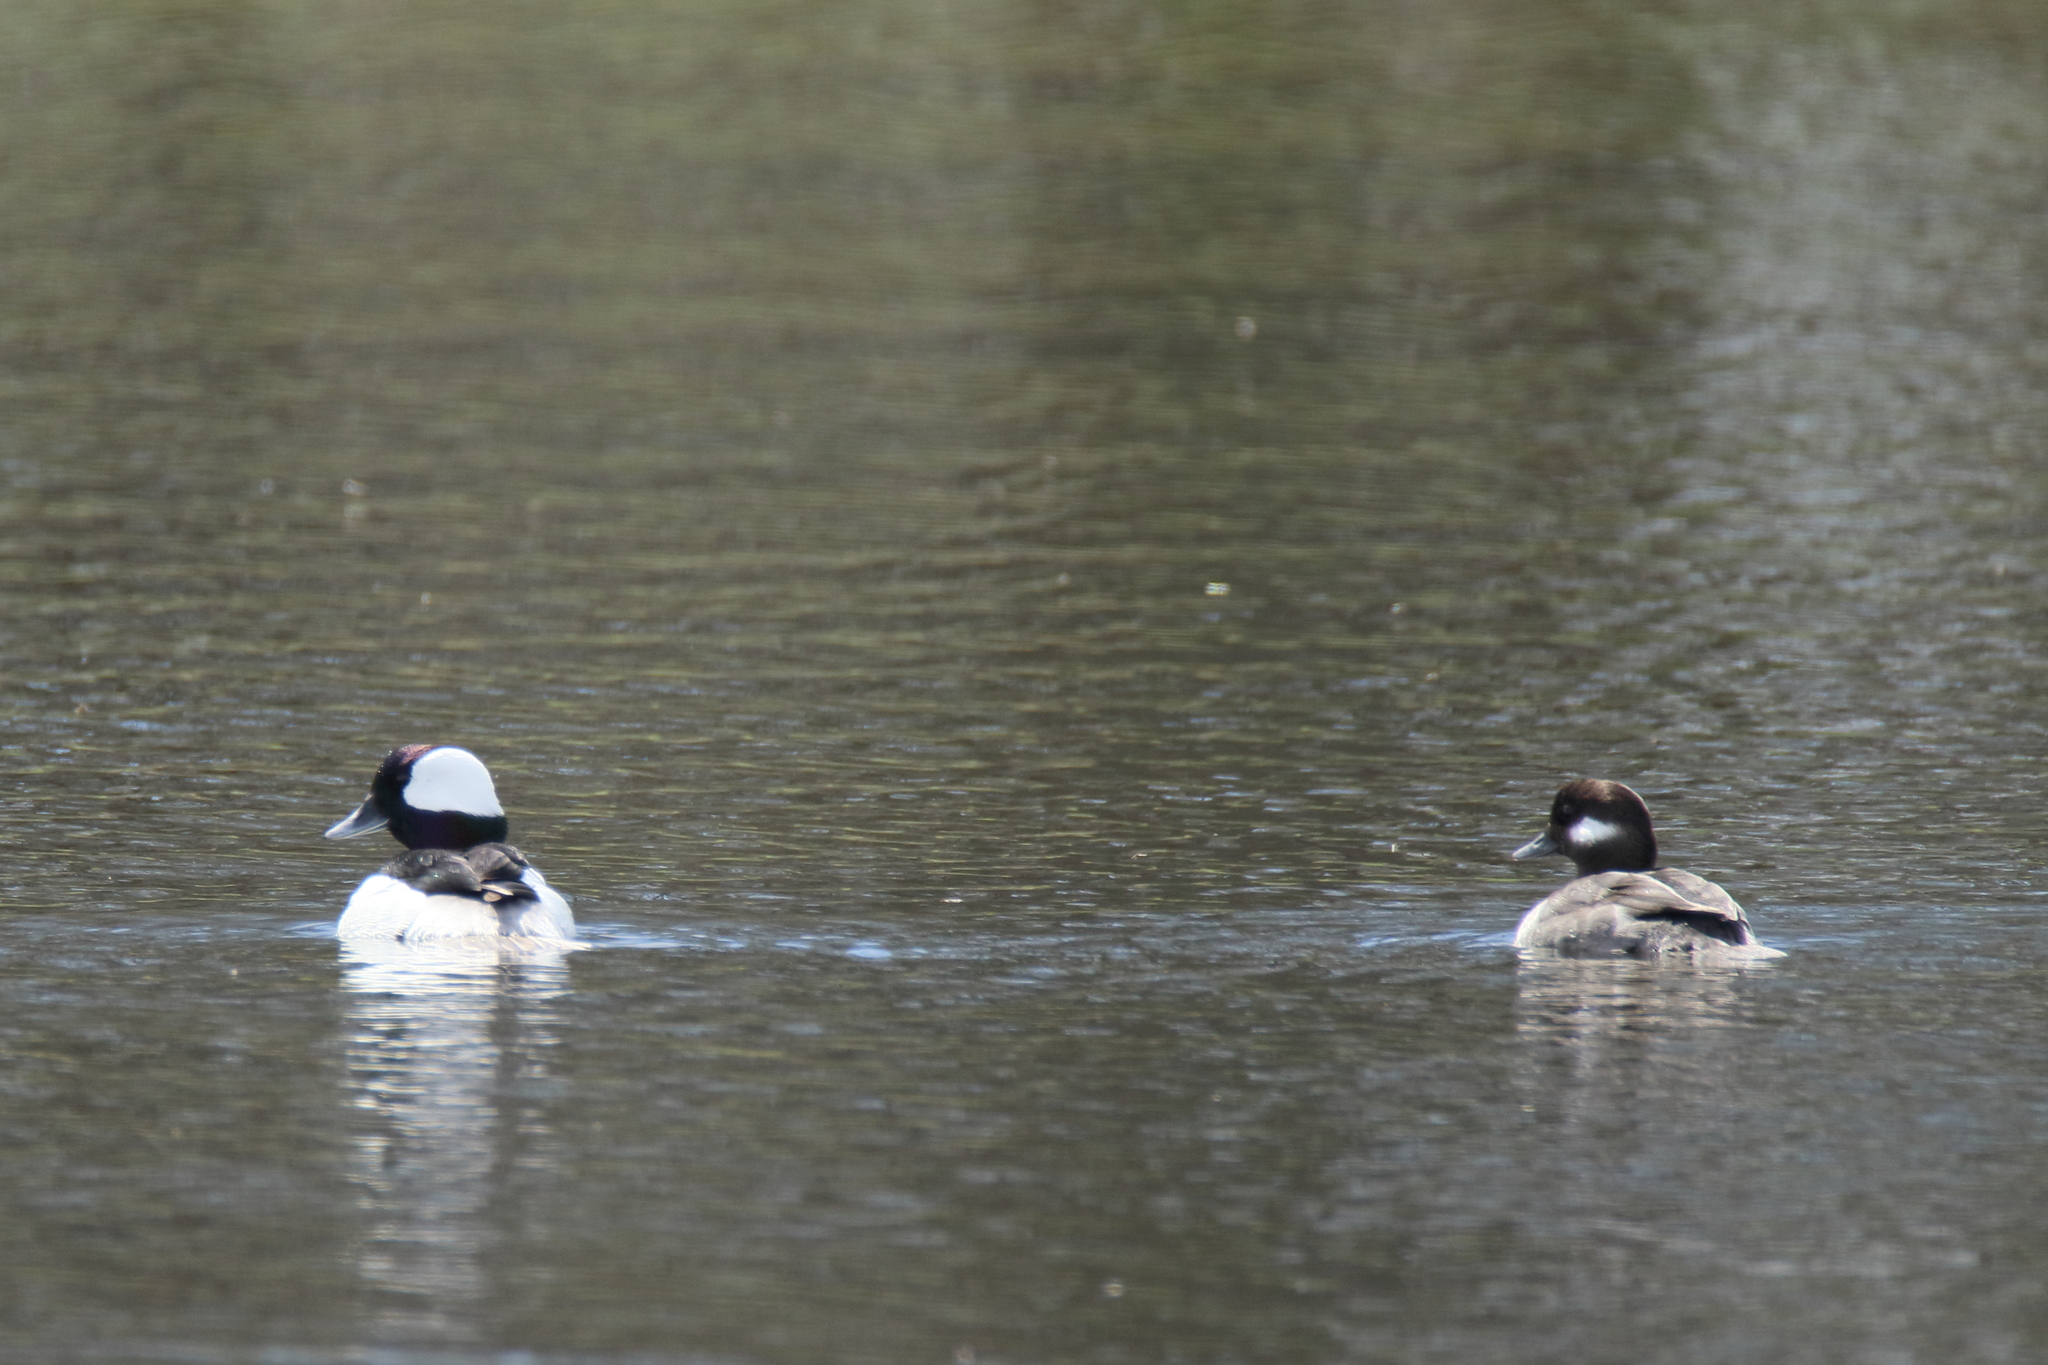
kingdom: Animalia
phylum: Chordata
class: Aves
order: Anseriformes
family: Anatidae
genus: Bucephala
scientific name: Bucephala albeola
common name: Bufflehead
